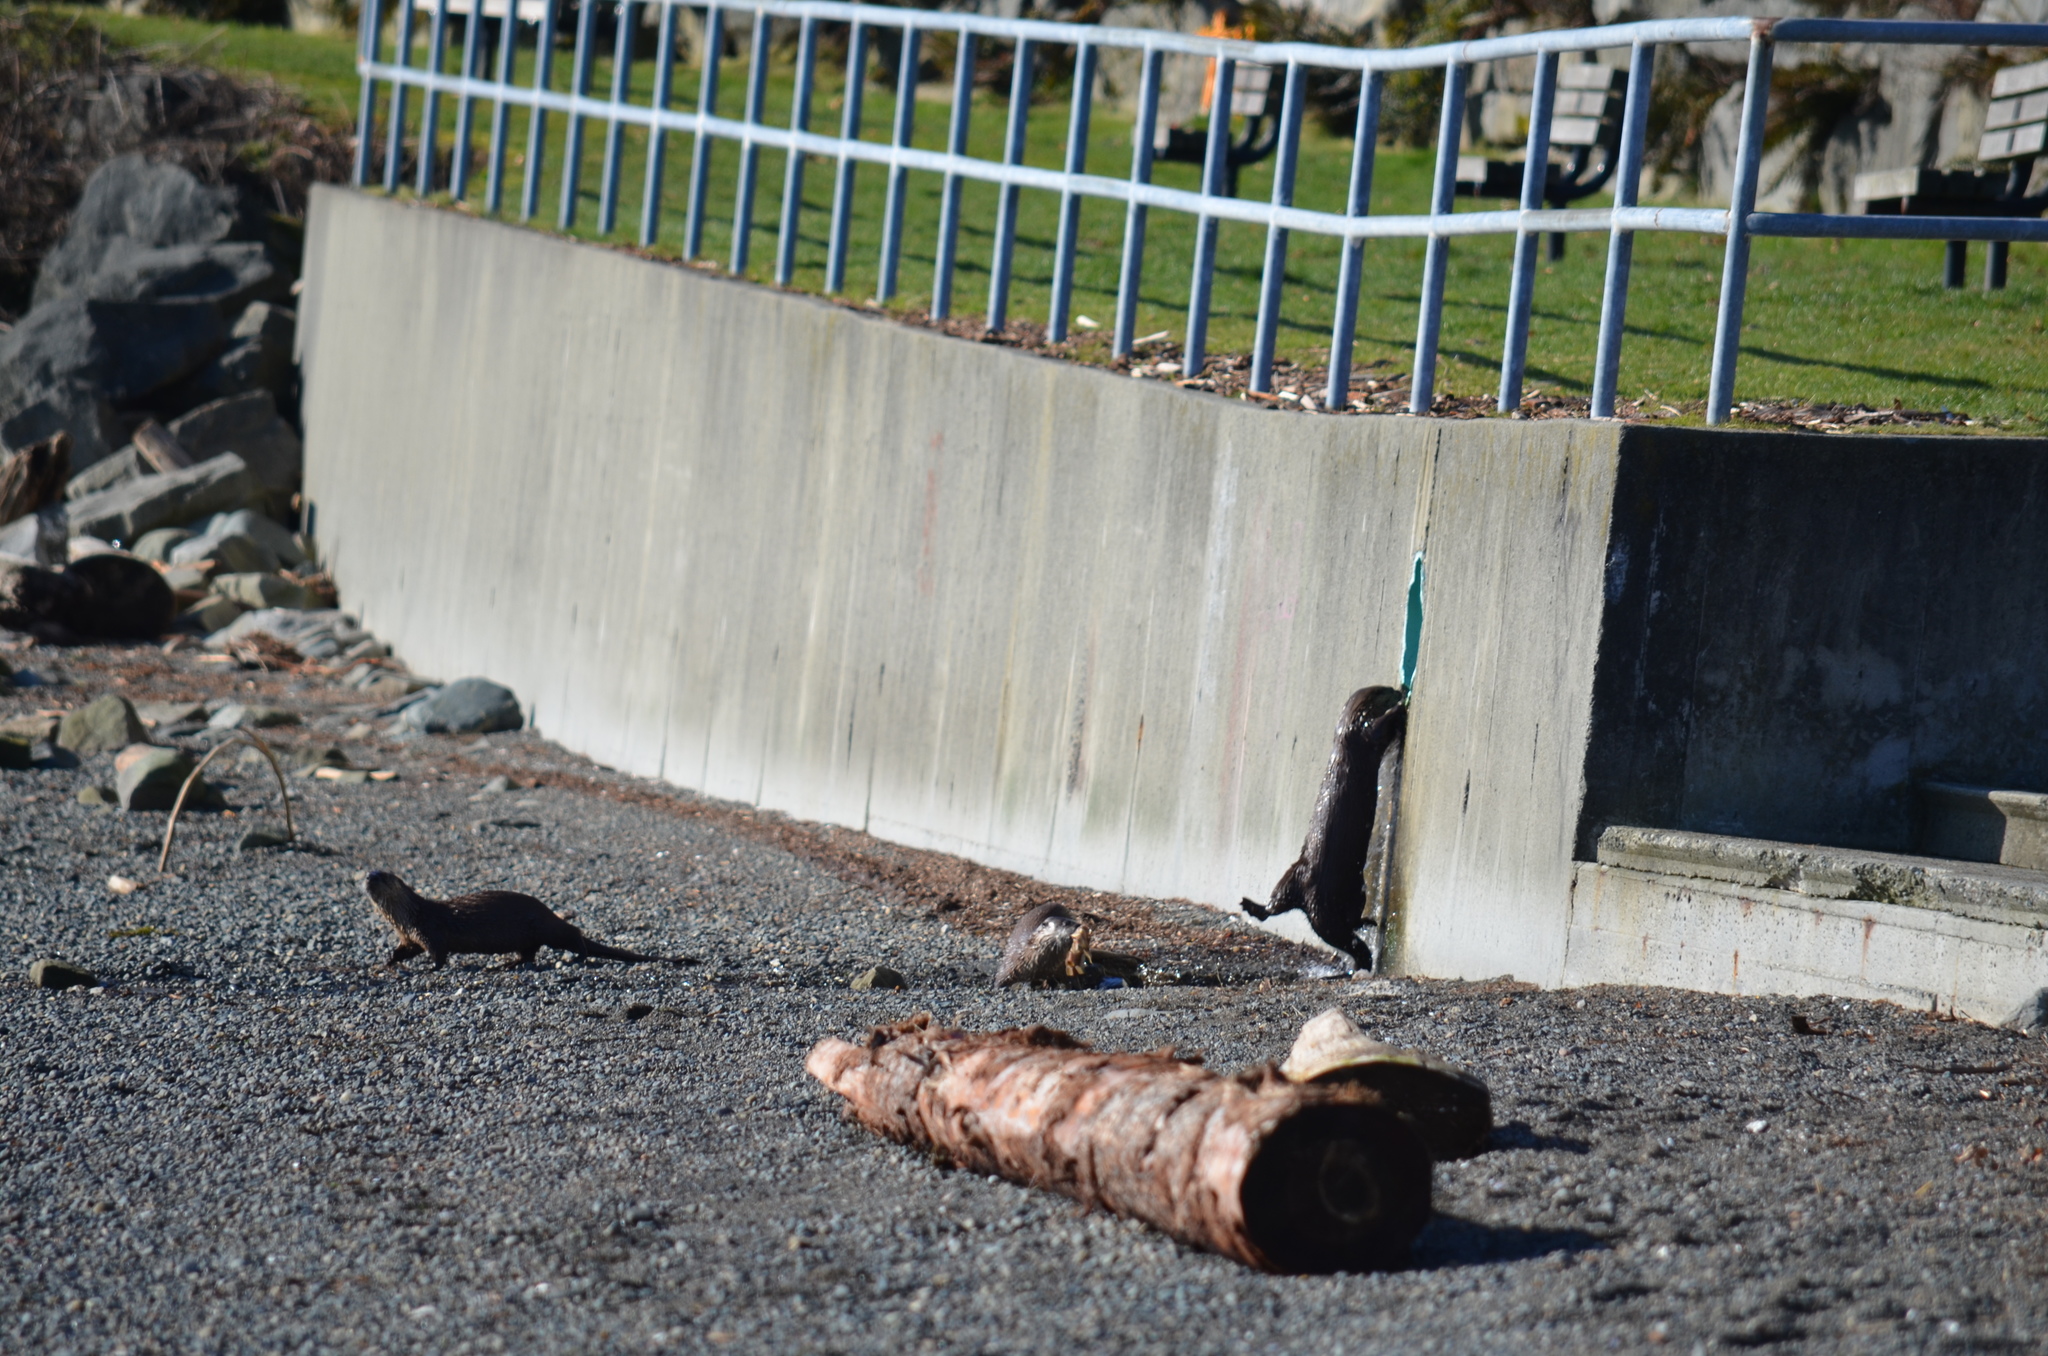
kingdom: Animalia
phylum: Chordata
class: Mammalia
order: Carnivora
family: Mustelidae
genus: Lontra
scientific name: Lontra canadensis
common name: North american river otter
